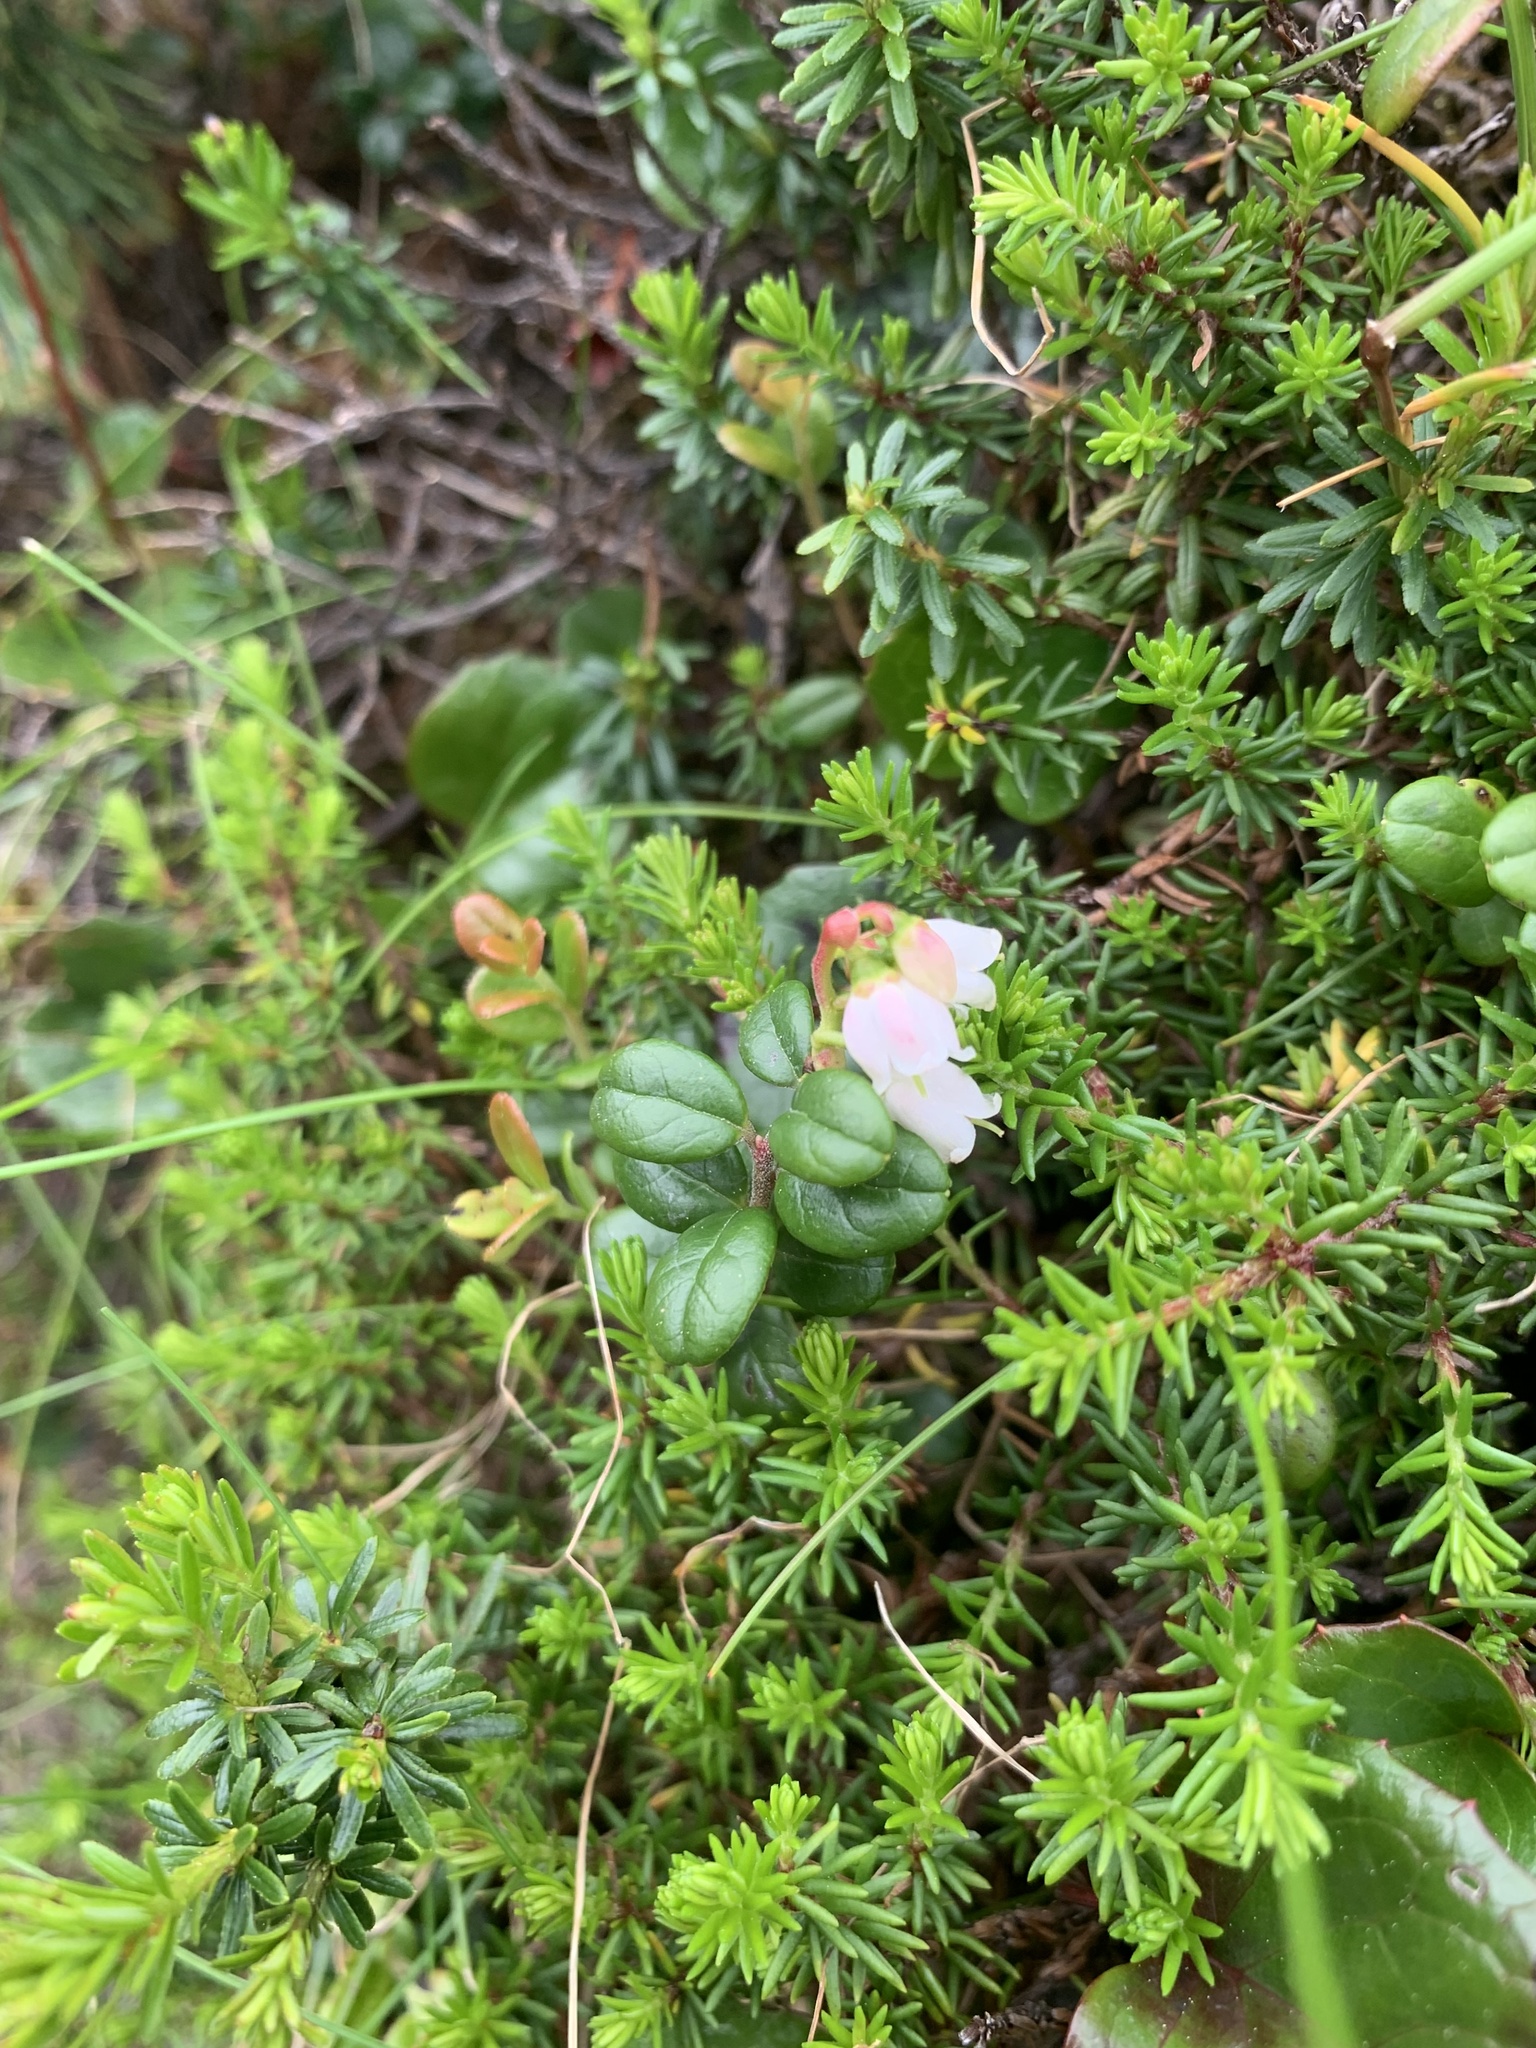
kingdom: Plantae
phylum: Tracheophyta
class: Magnoliopsida
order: Ericales
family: Ericaceae
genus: Vaccinium
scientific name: Vaccinium vitis-idaea
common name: Cowberry
